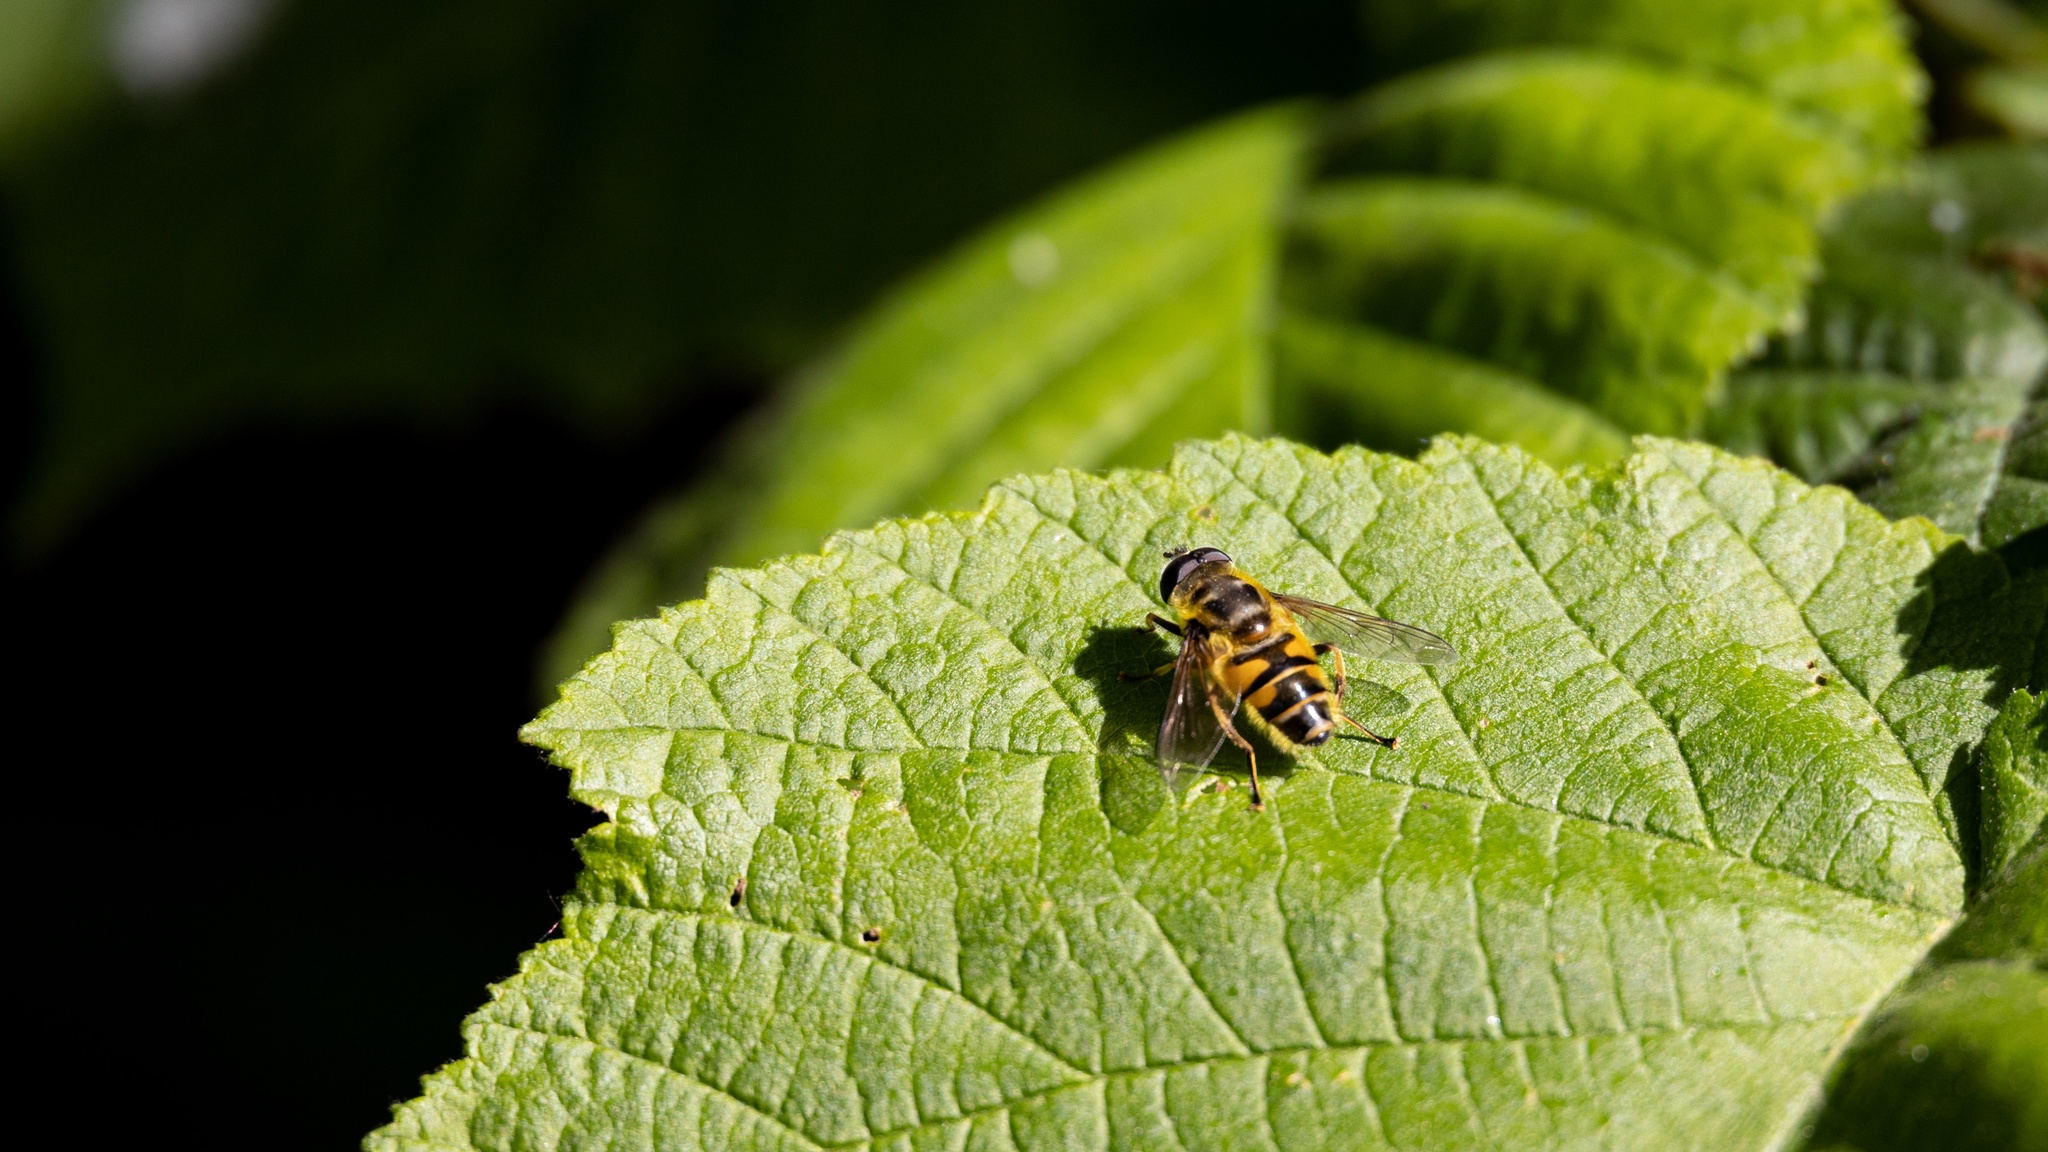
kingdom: Animalia
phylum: Arthropoda
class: Insecta
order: Diptera
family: Syrphidae
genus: Myathropa
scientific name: Myathropa florea
